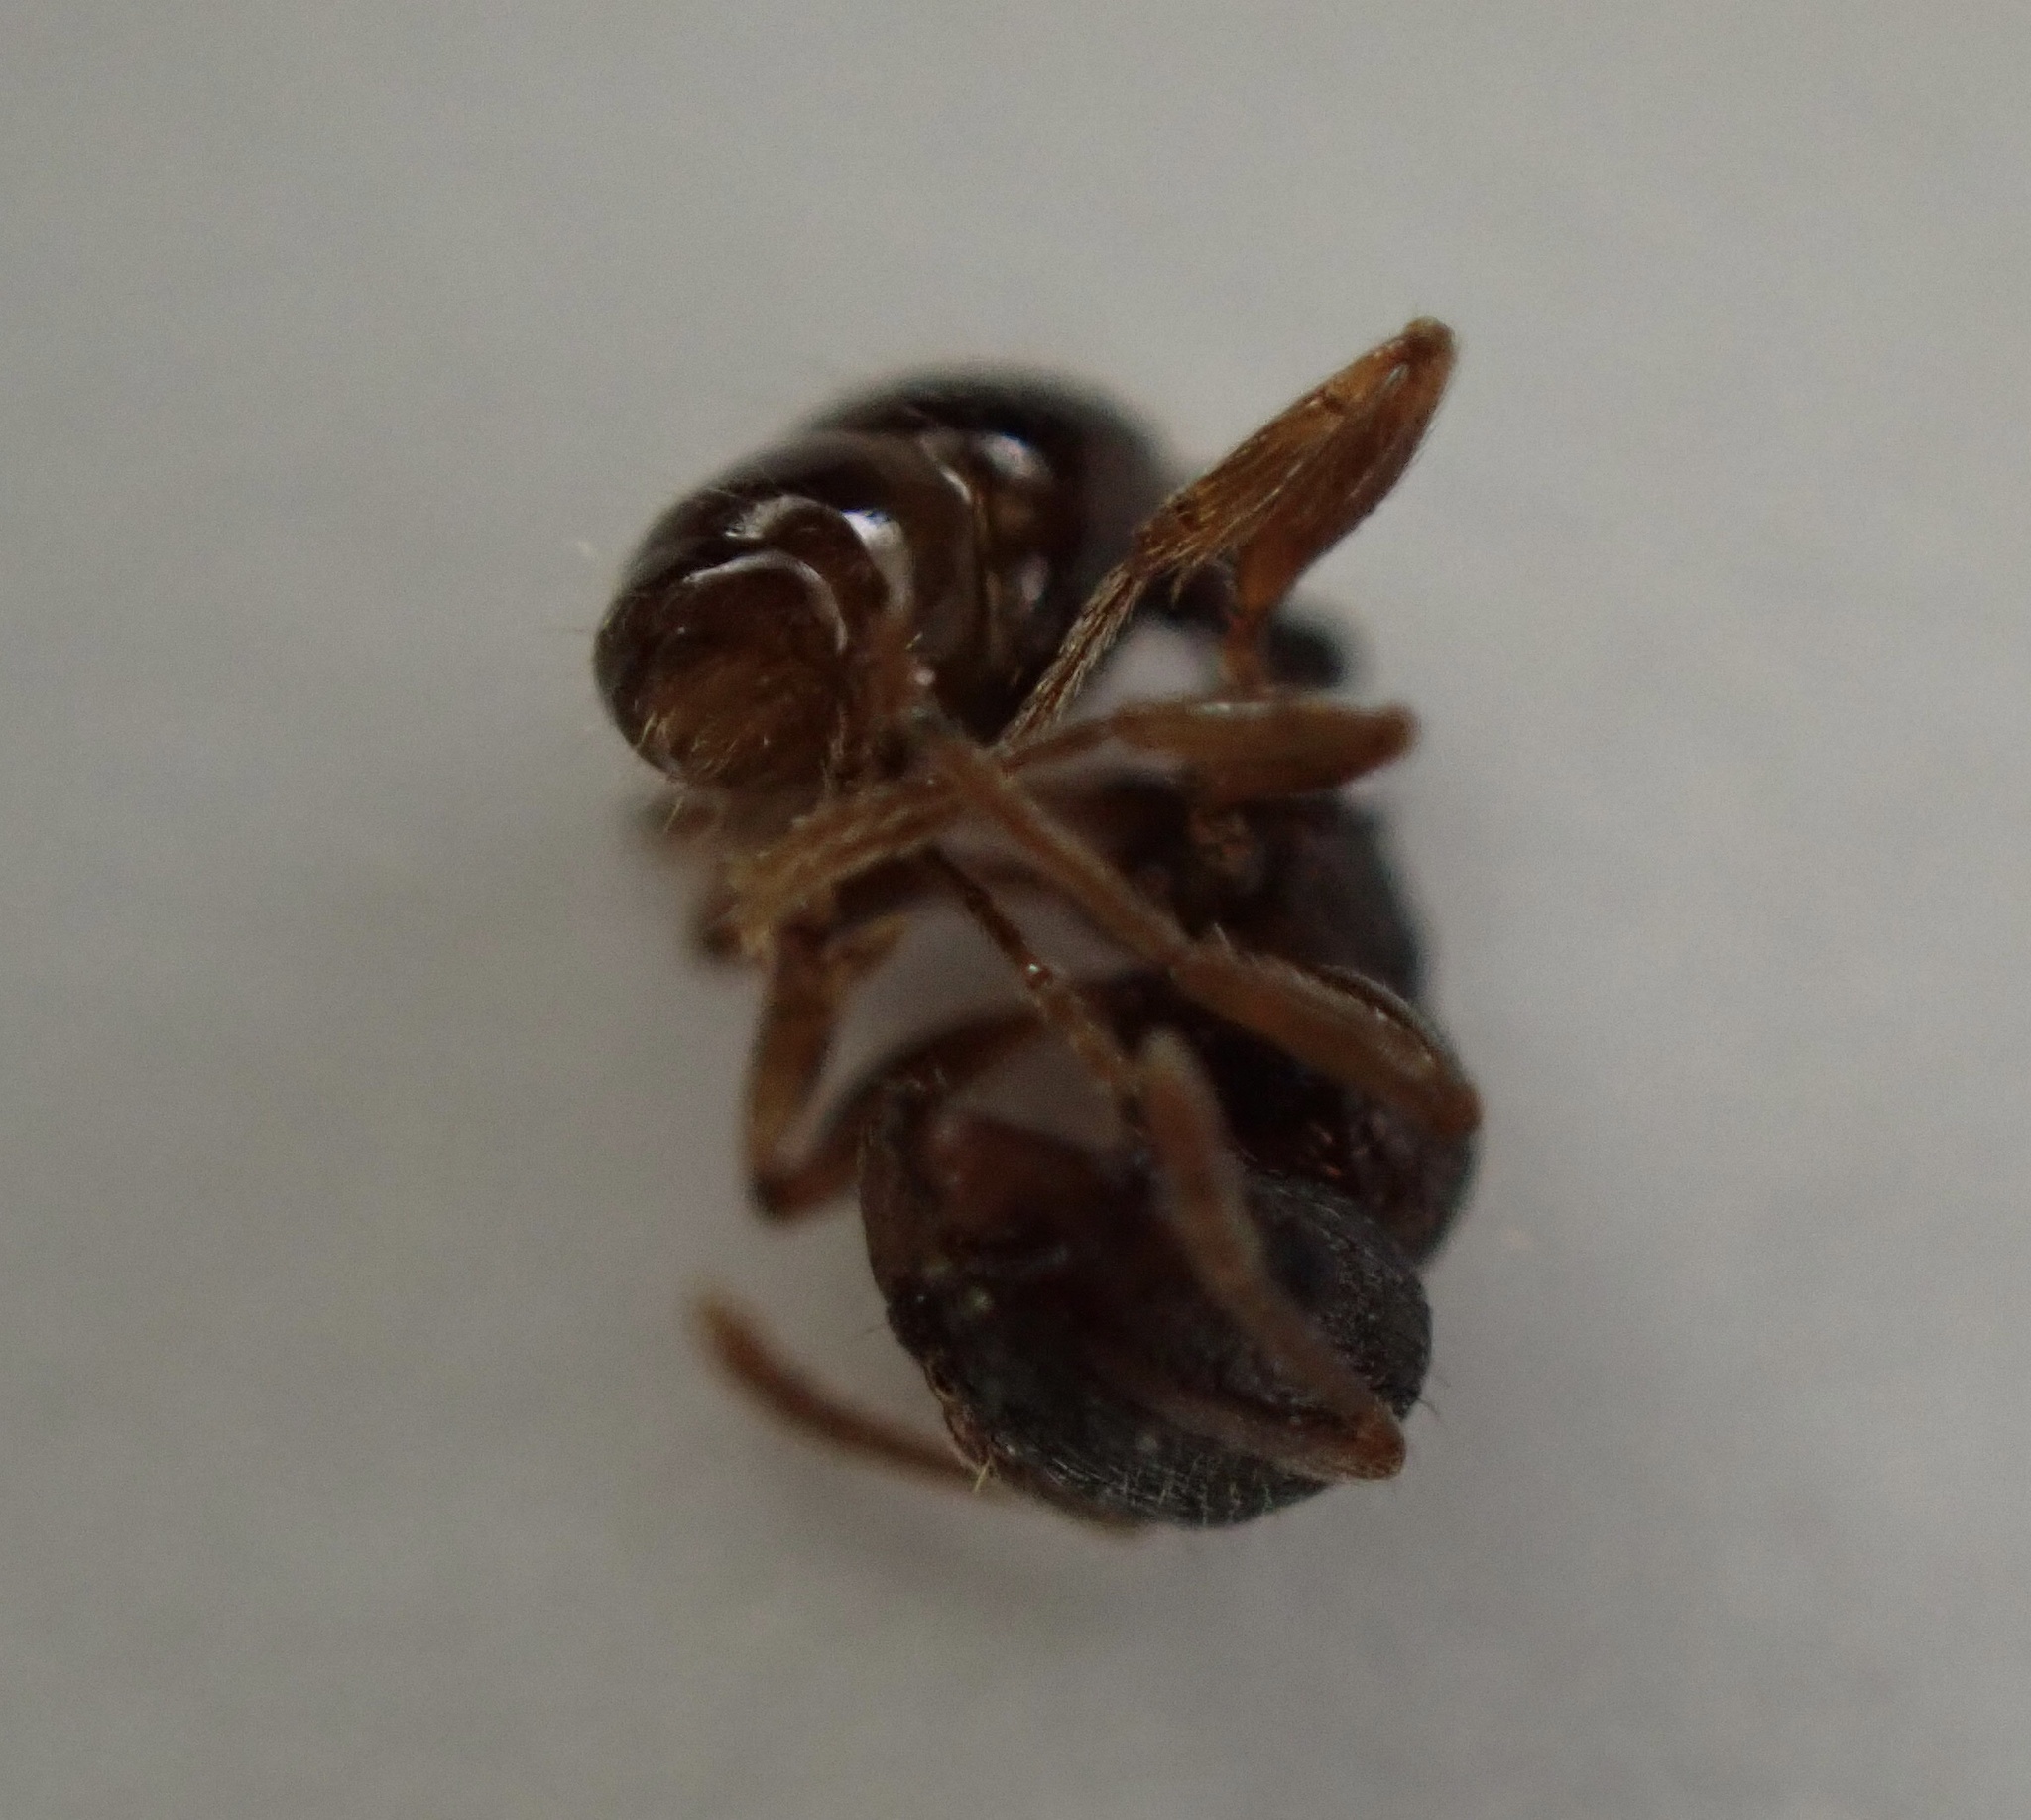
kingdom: Animalia
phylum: Arthropoda
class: Insecta
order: Hymenoptera
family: Formicidae
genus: Tetramorium
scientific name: Tetramorium immigrans
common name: Pavement ant
